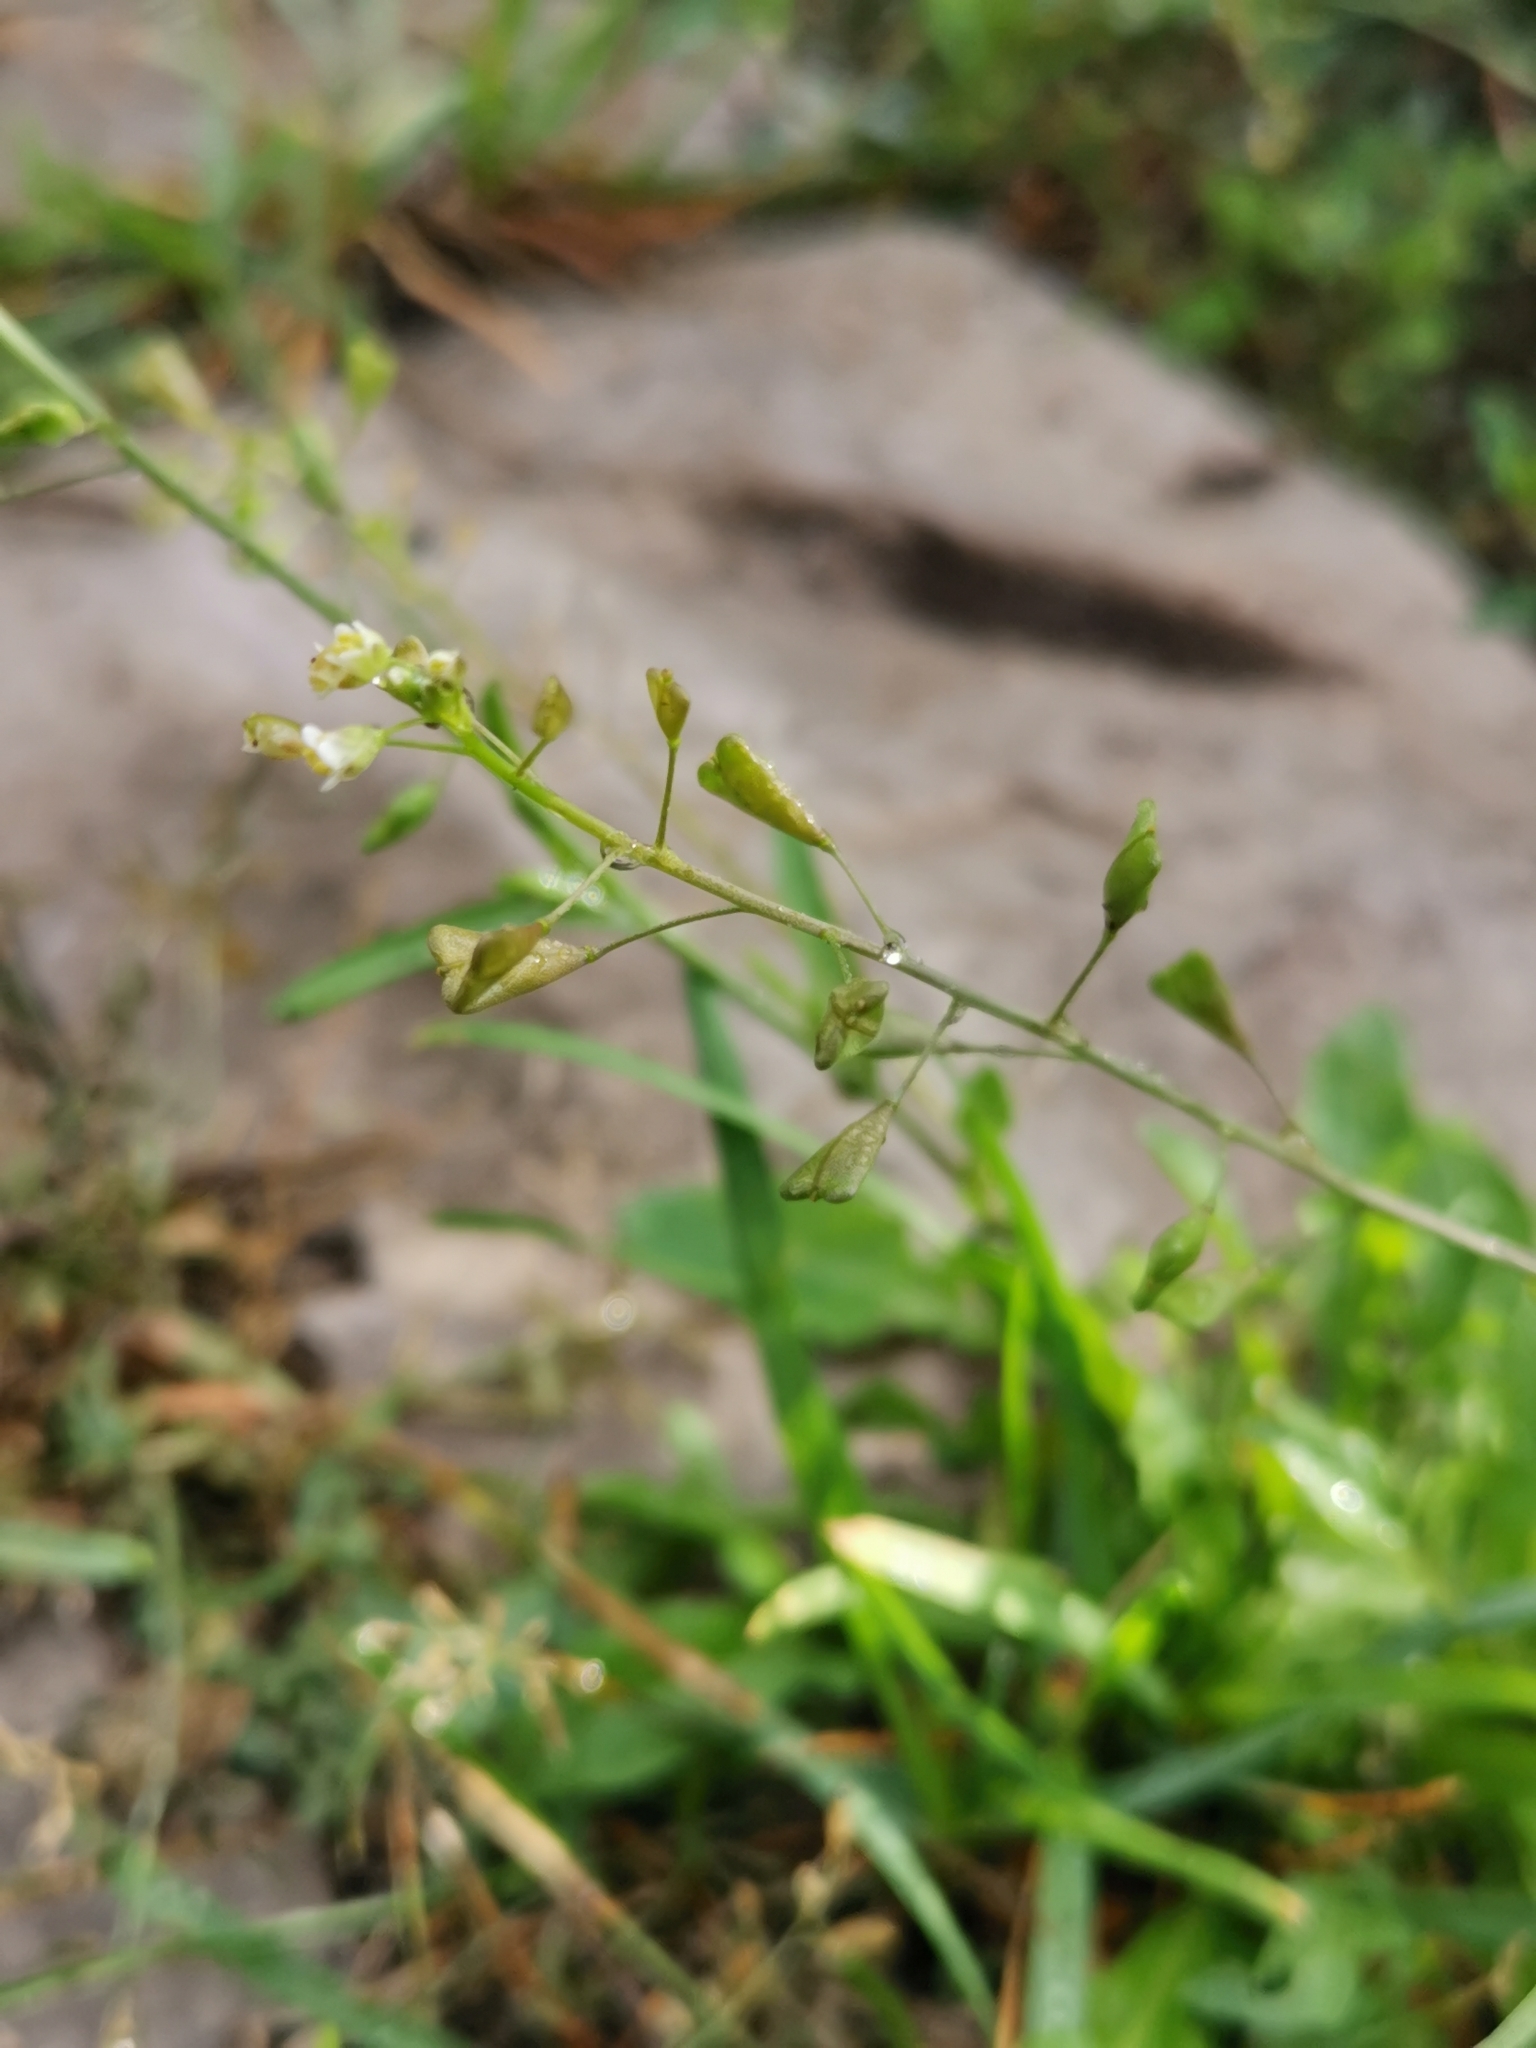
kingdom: Plantae
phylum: Tracheophyta
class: Magnoliopsida
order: Brassicales
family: Brassicaceae
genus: Capsella
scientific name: Capsella bursa-pastoris
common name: Shepherd's purse
